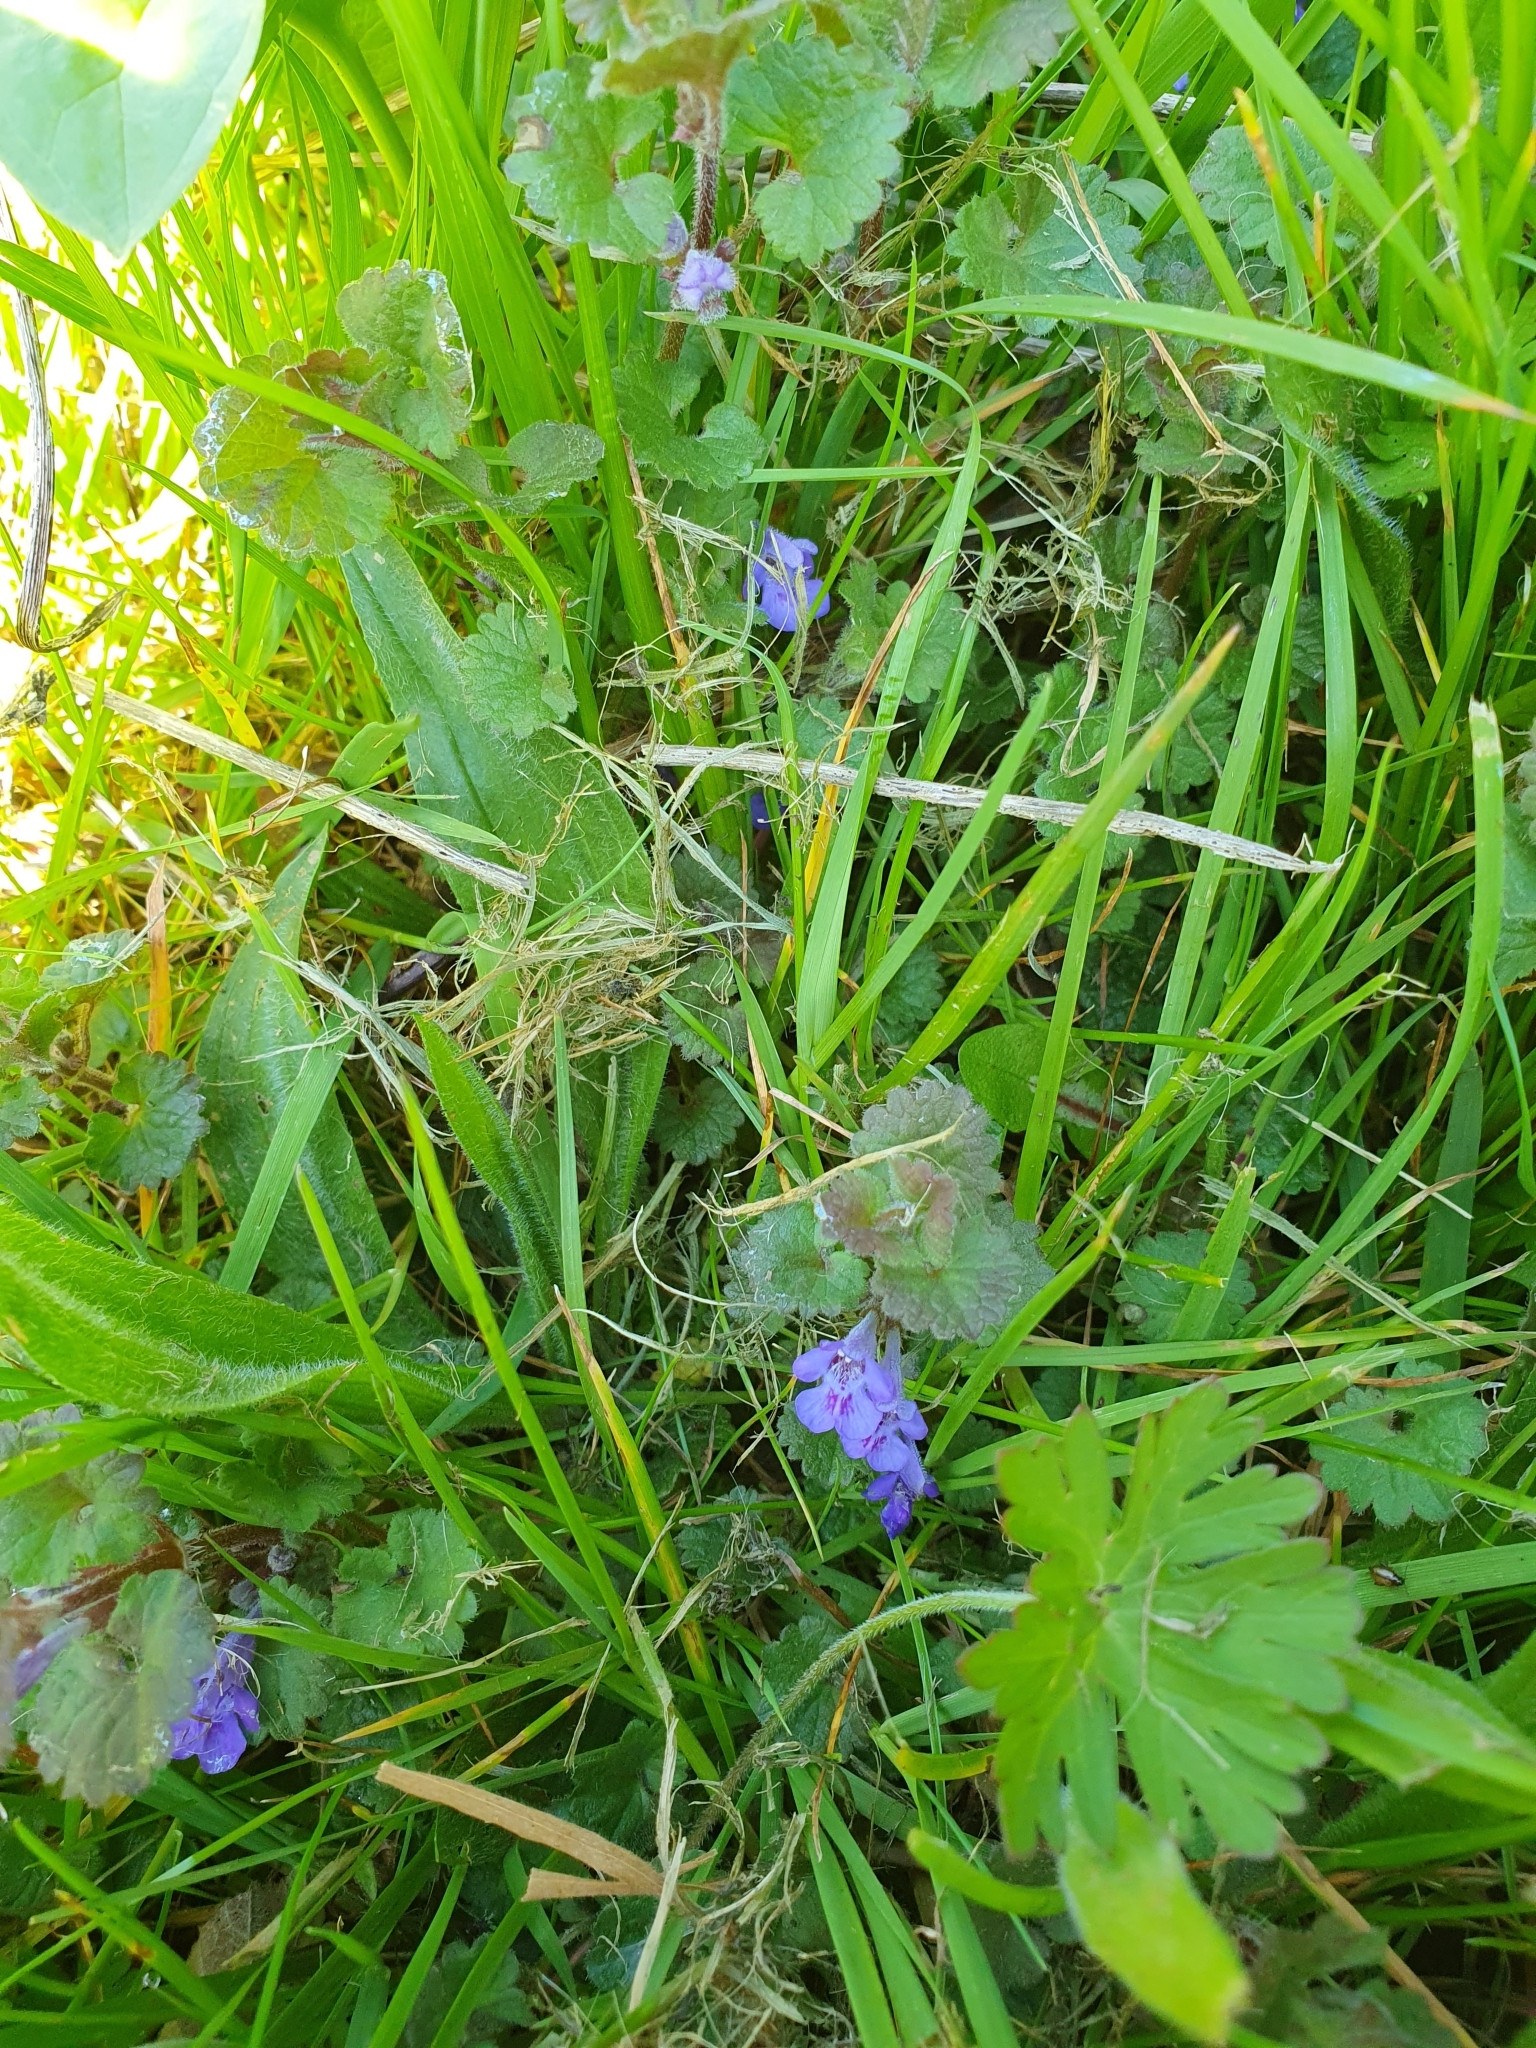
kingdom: Plantae
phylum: Tracheophyta
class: Magnoliopsida
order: Lamiales
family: Lamiaceae
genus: Glechoma
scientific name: Glechoma hederacea
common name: Ground ivy
